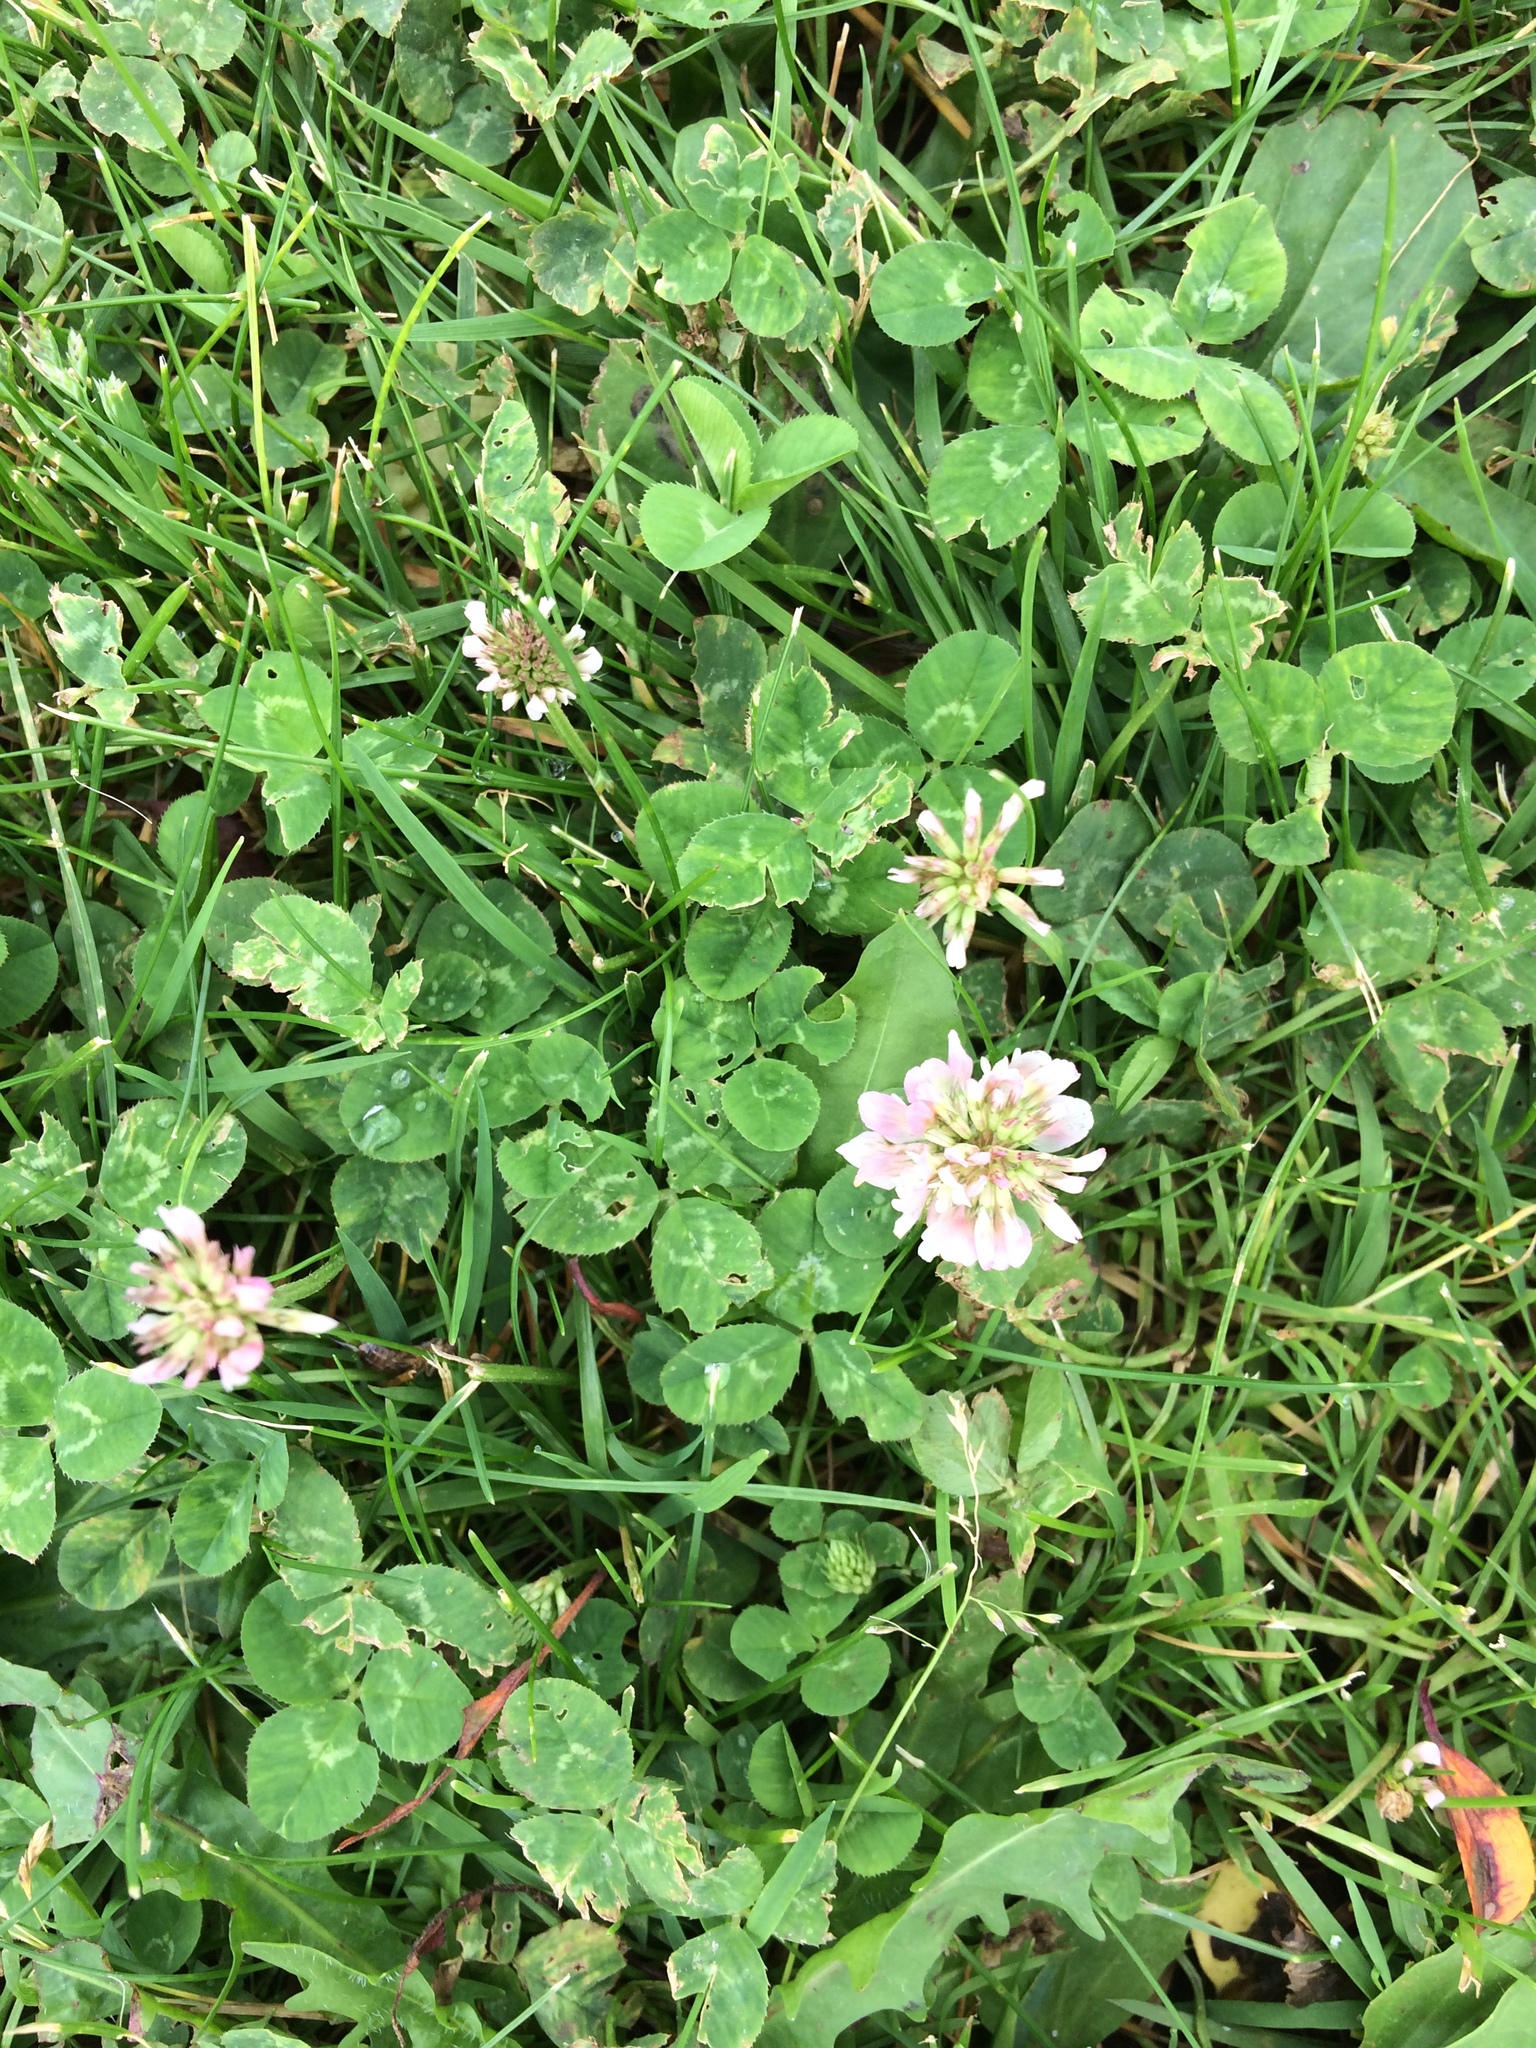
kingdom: Plantae
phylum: Tracheophyta
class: Magnoliopsida
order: Fabales
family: Fabaceae
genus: Trifolium
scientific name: Trifolium repens
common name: White clover
